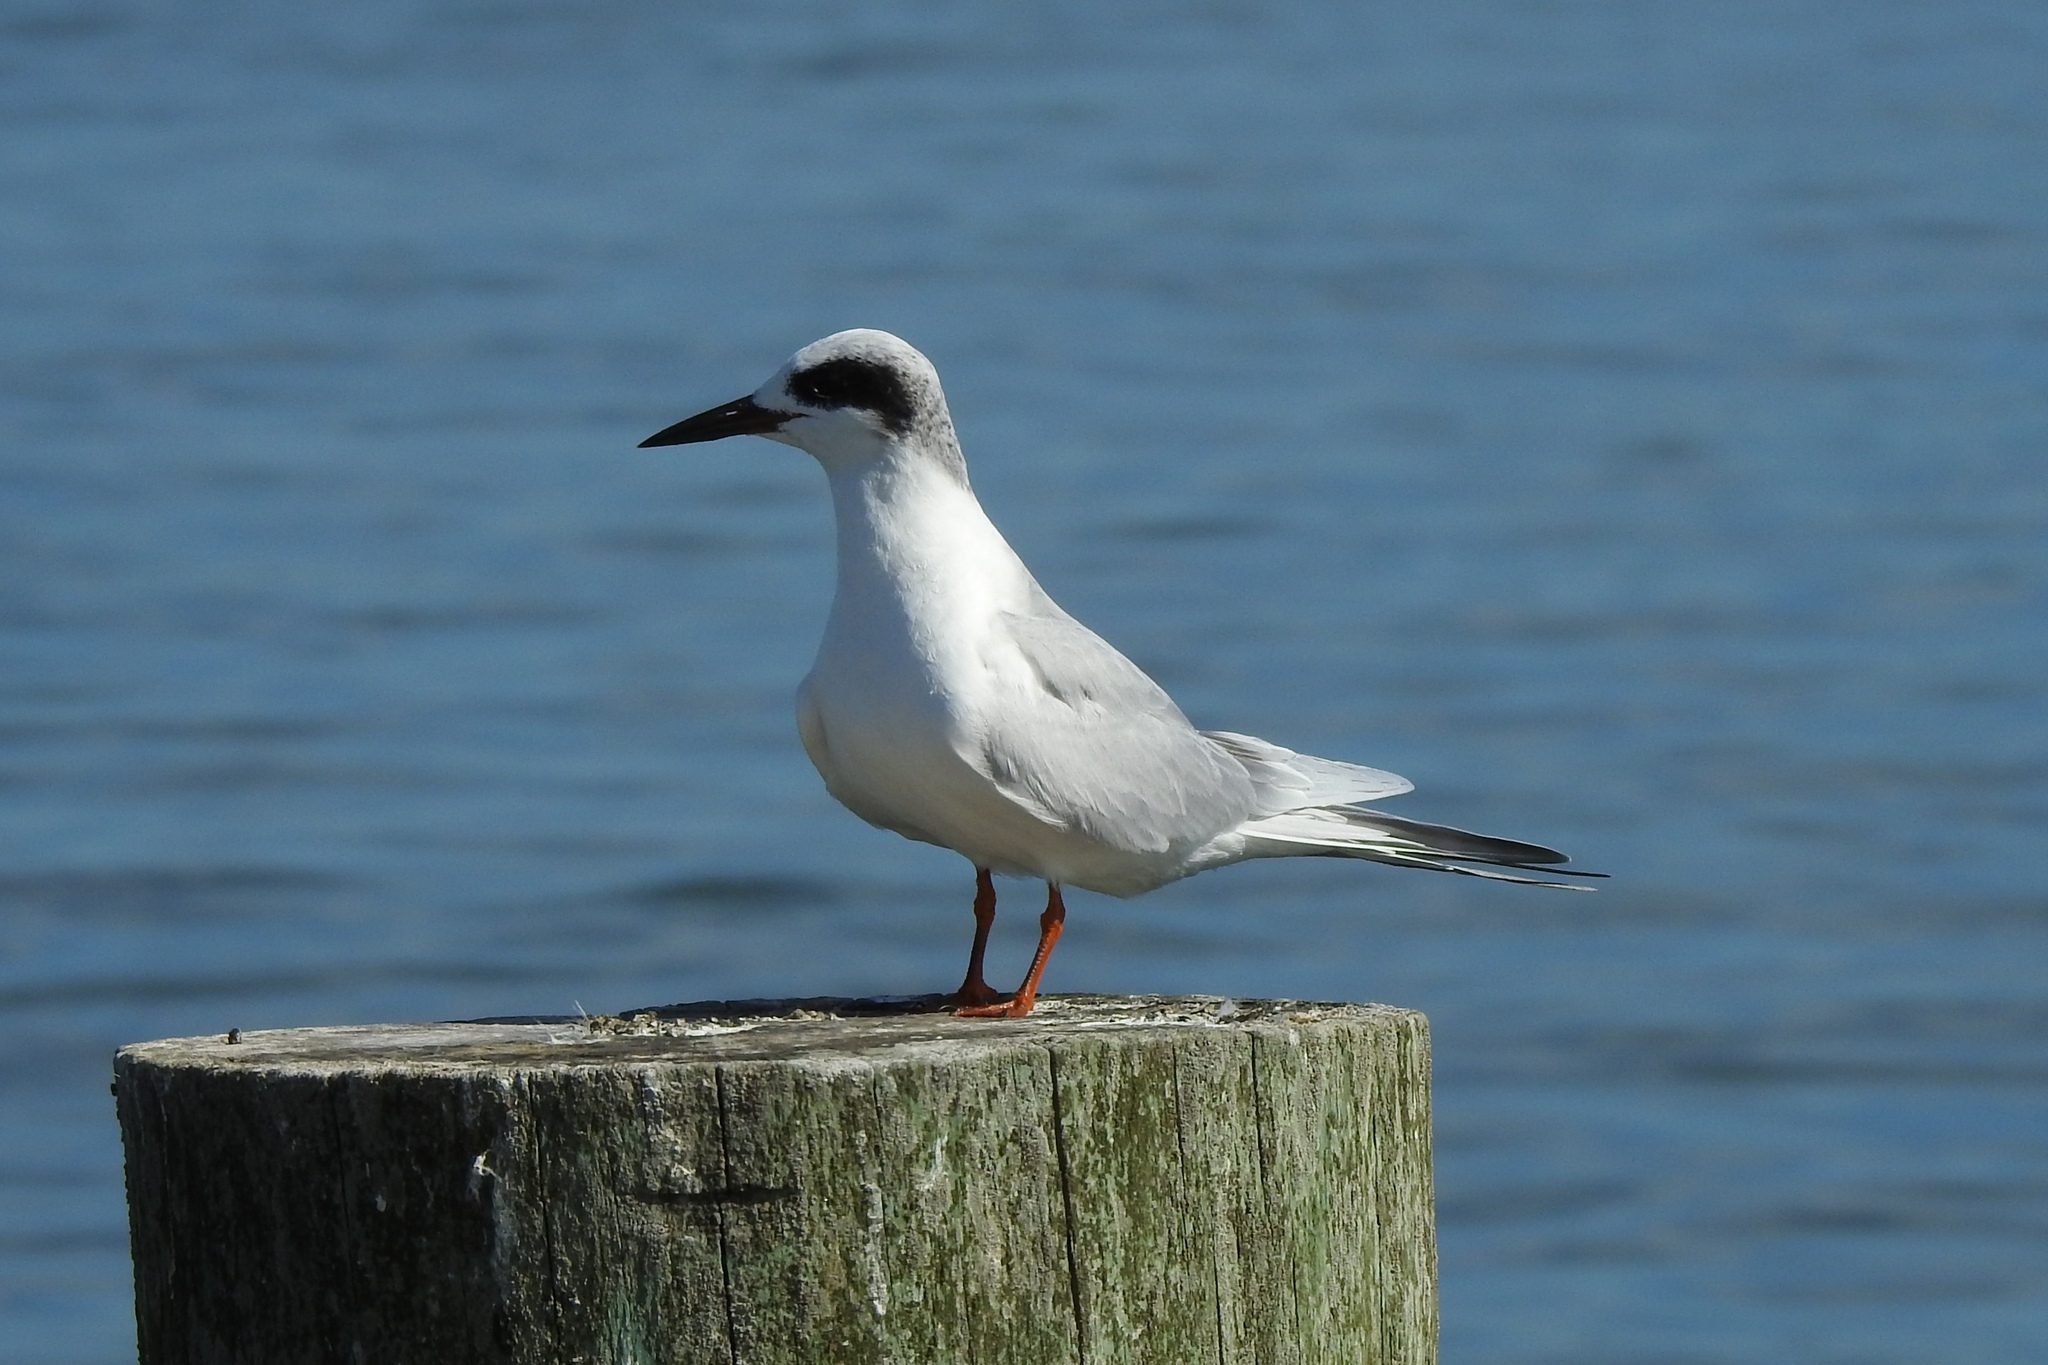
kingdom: Animalia
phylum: Chordata
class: Aves
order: Charadriiformes
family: Laridae
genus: Sterna
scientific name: Sterna forsteri
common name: Forster's tern
